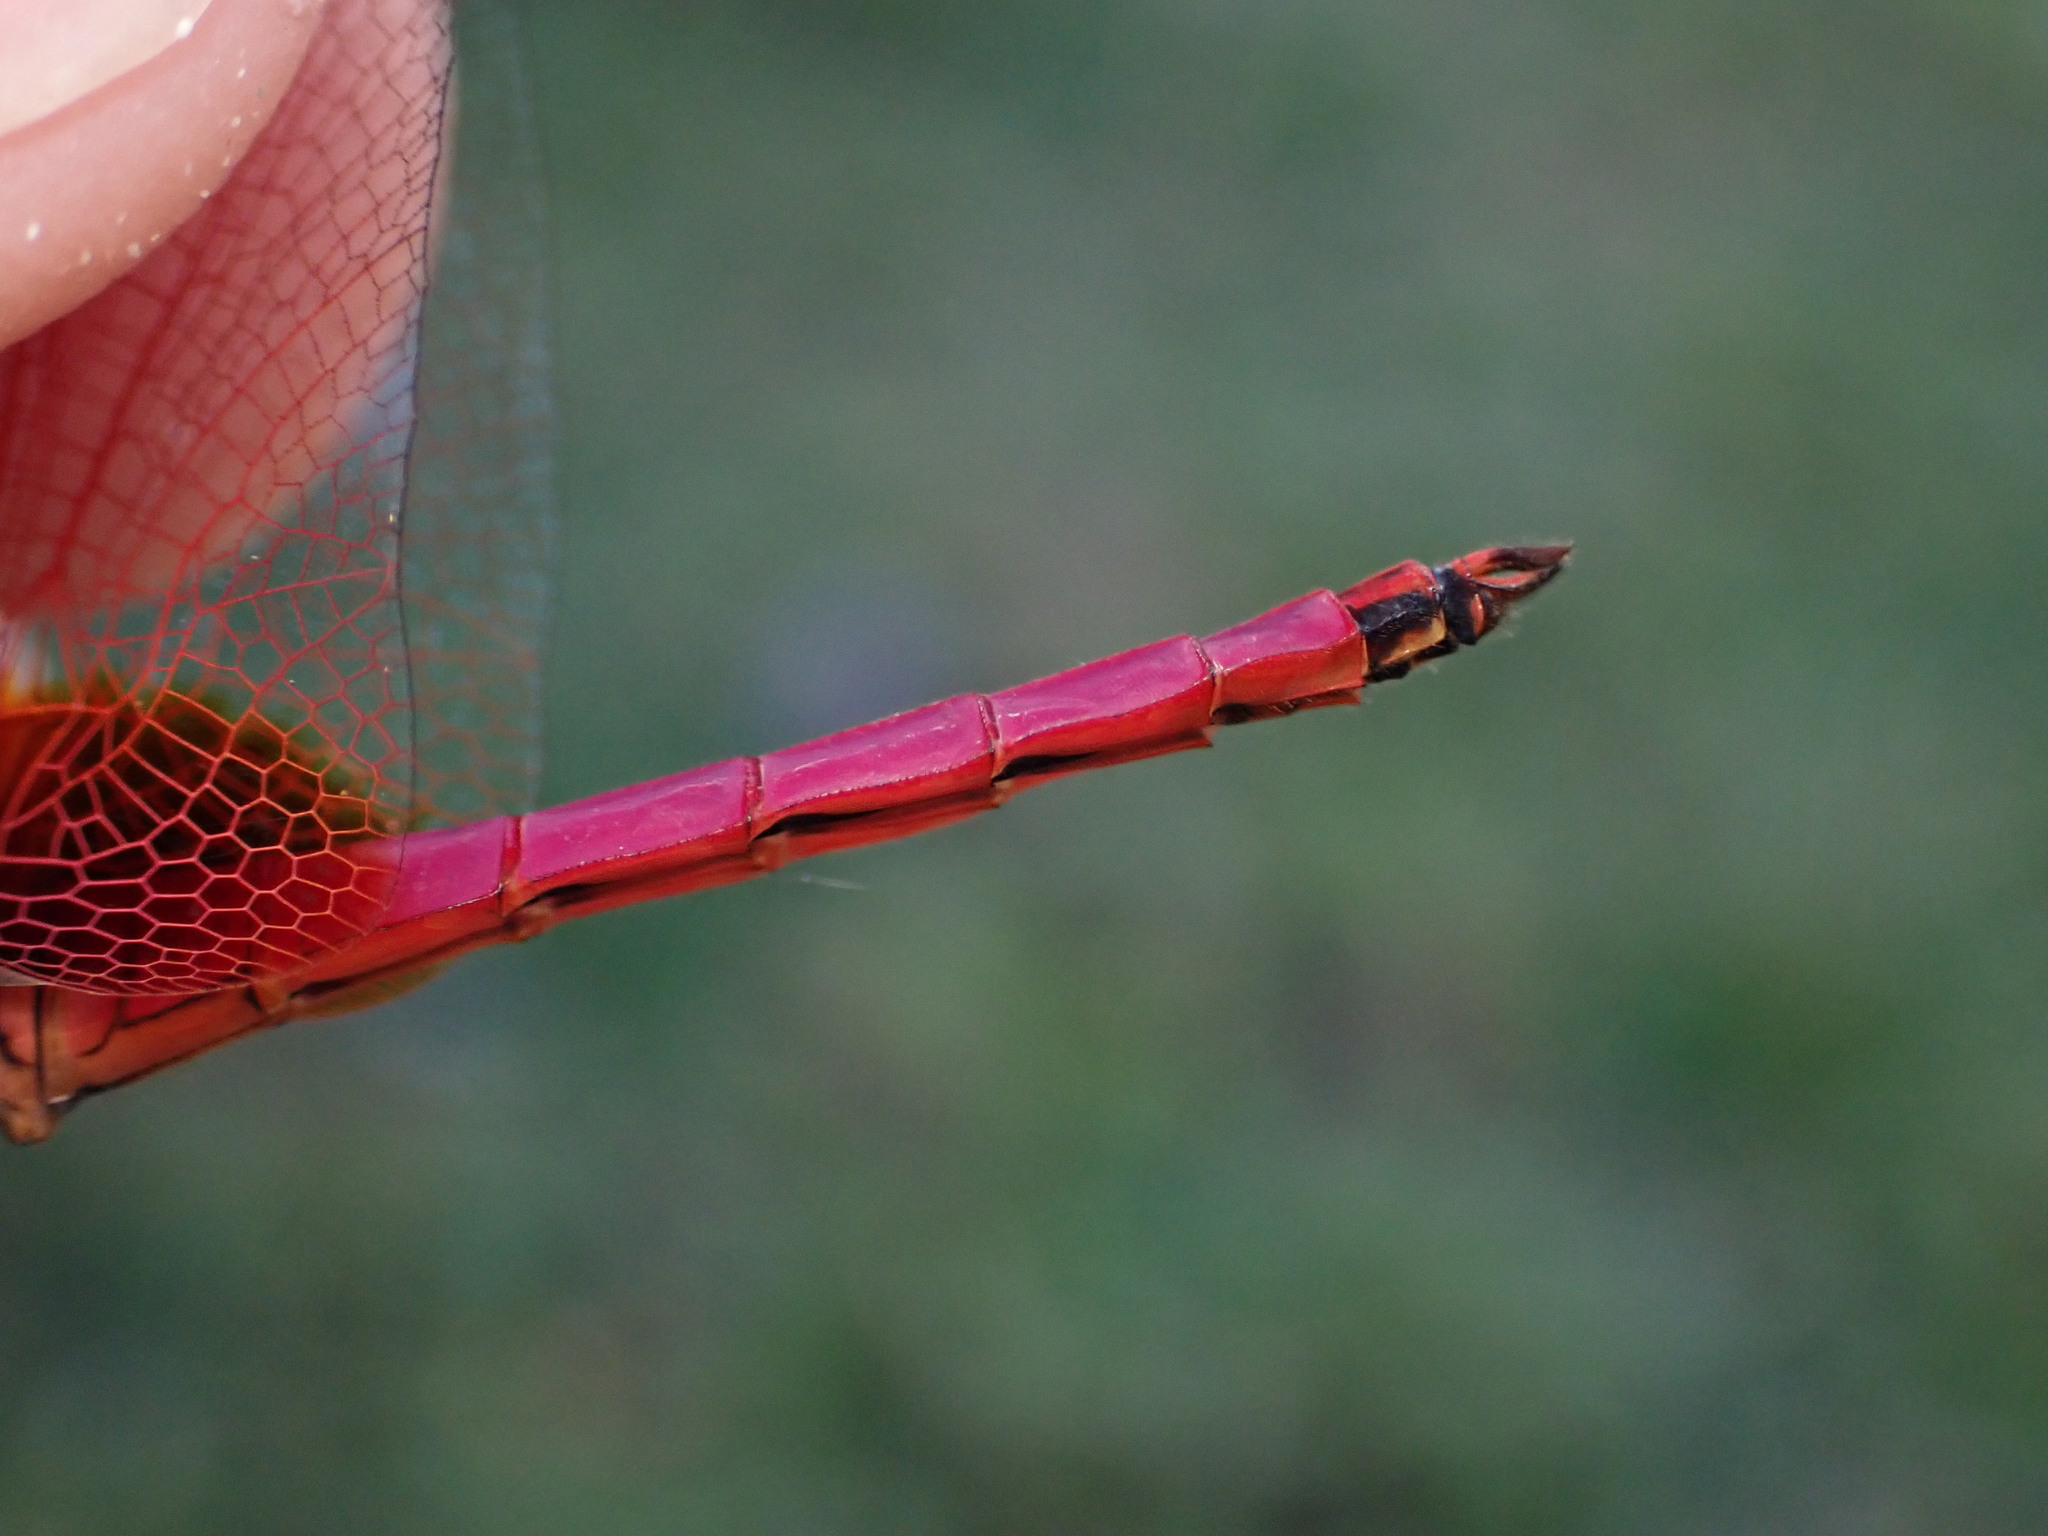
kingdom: Animalia
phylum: Arthropoda
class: Insecta
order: Odonata
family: Libellulidae
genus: Trithemis
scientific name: Trithemis aurora
